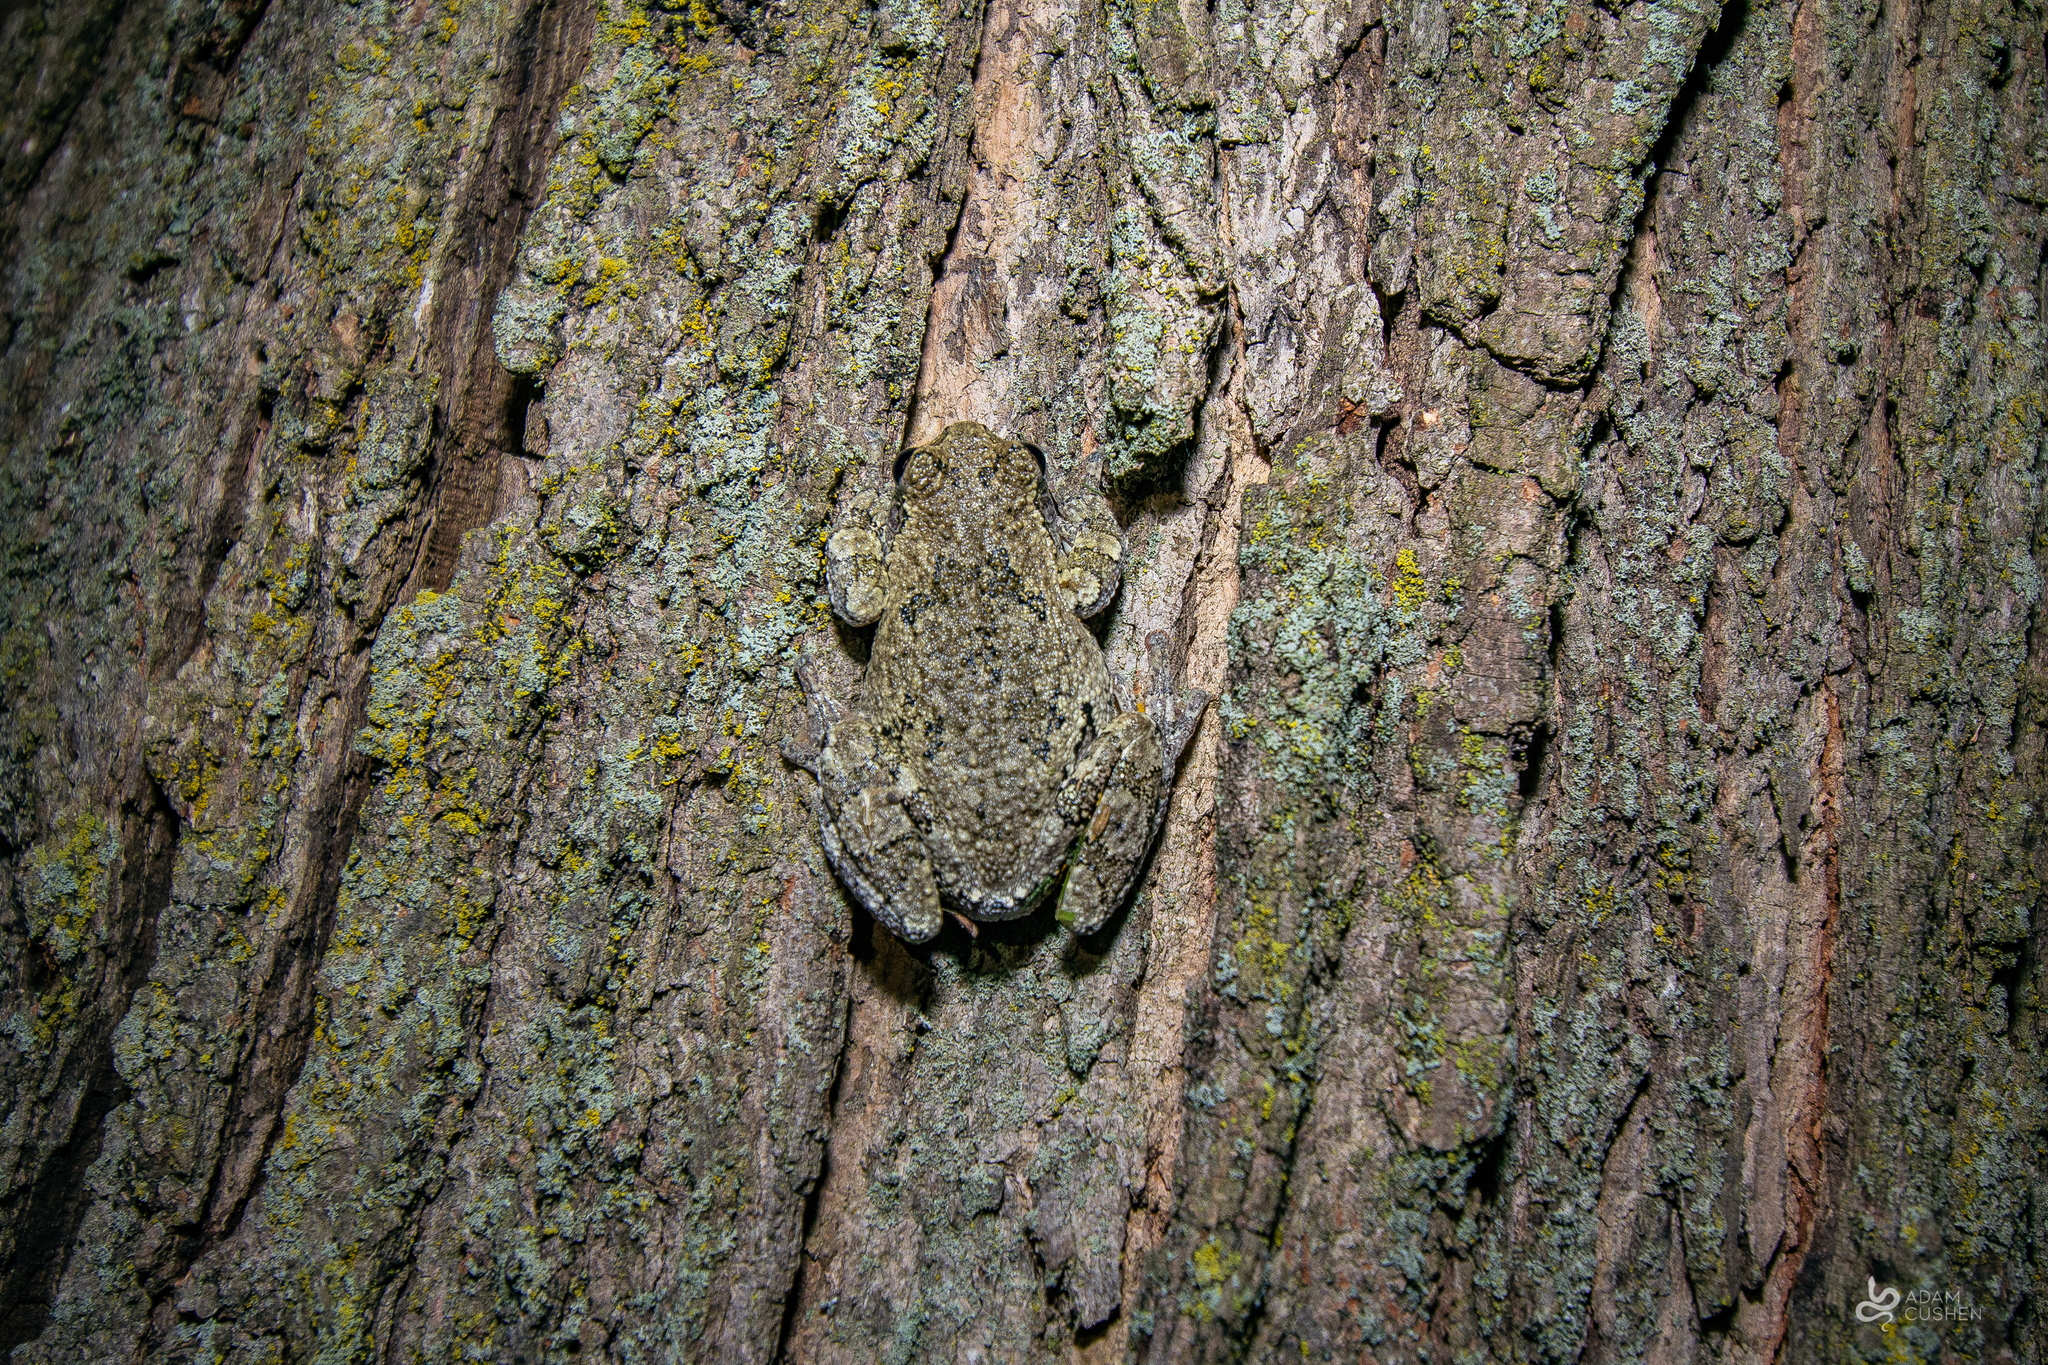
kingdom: Animalia
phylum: Chordata
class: Amphibia
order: Anura
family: Hylidae
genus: Dryophytes
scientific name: Dryophytes versicolor
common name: Gray treefrog
